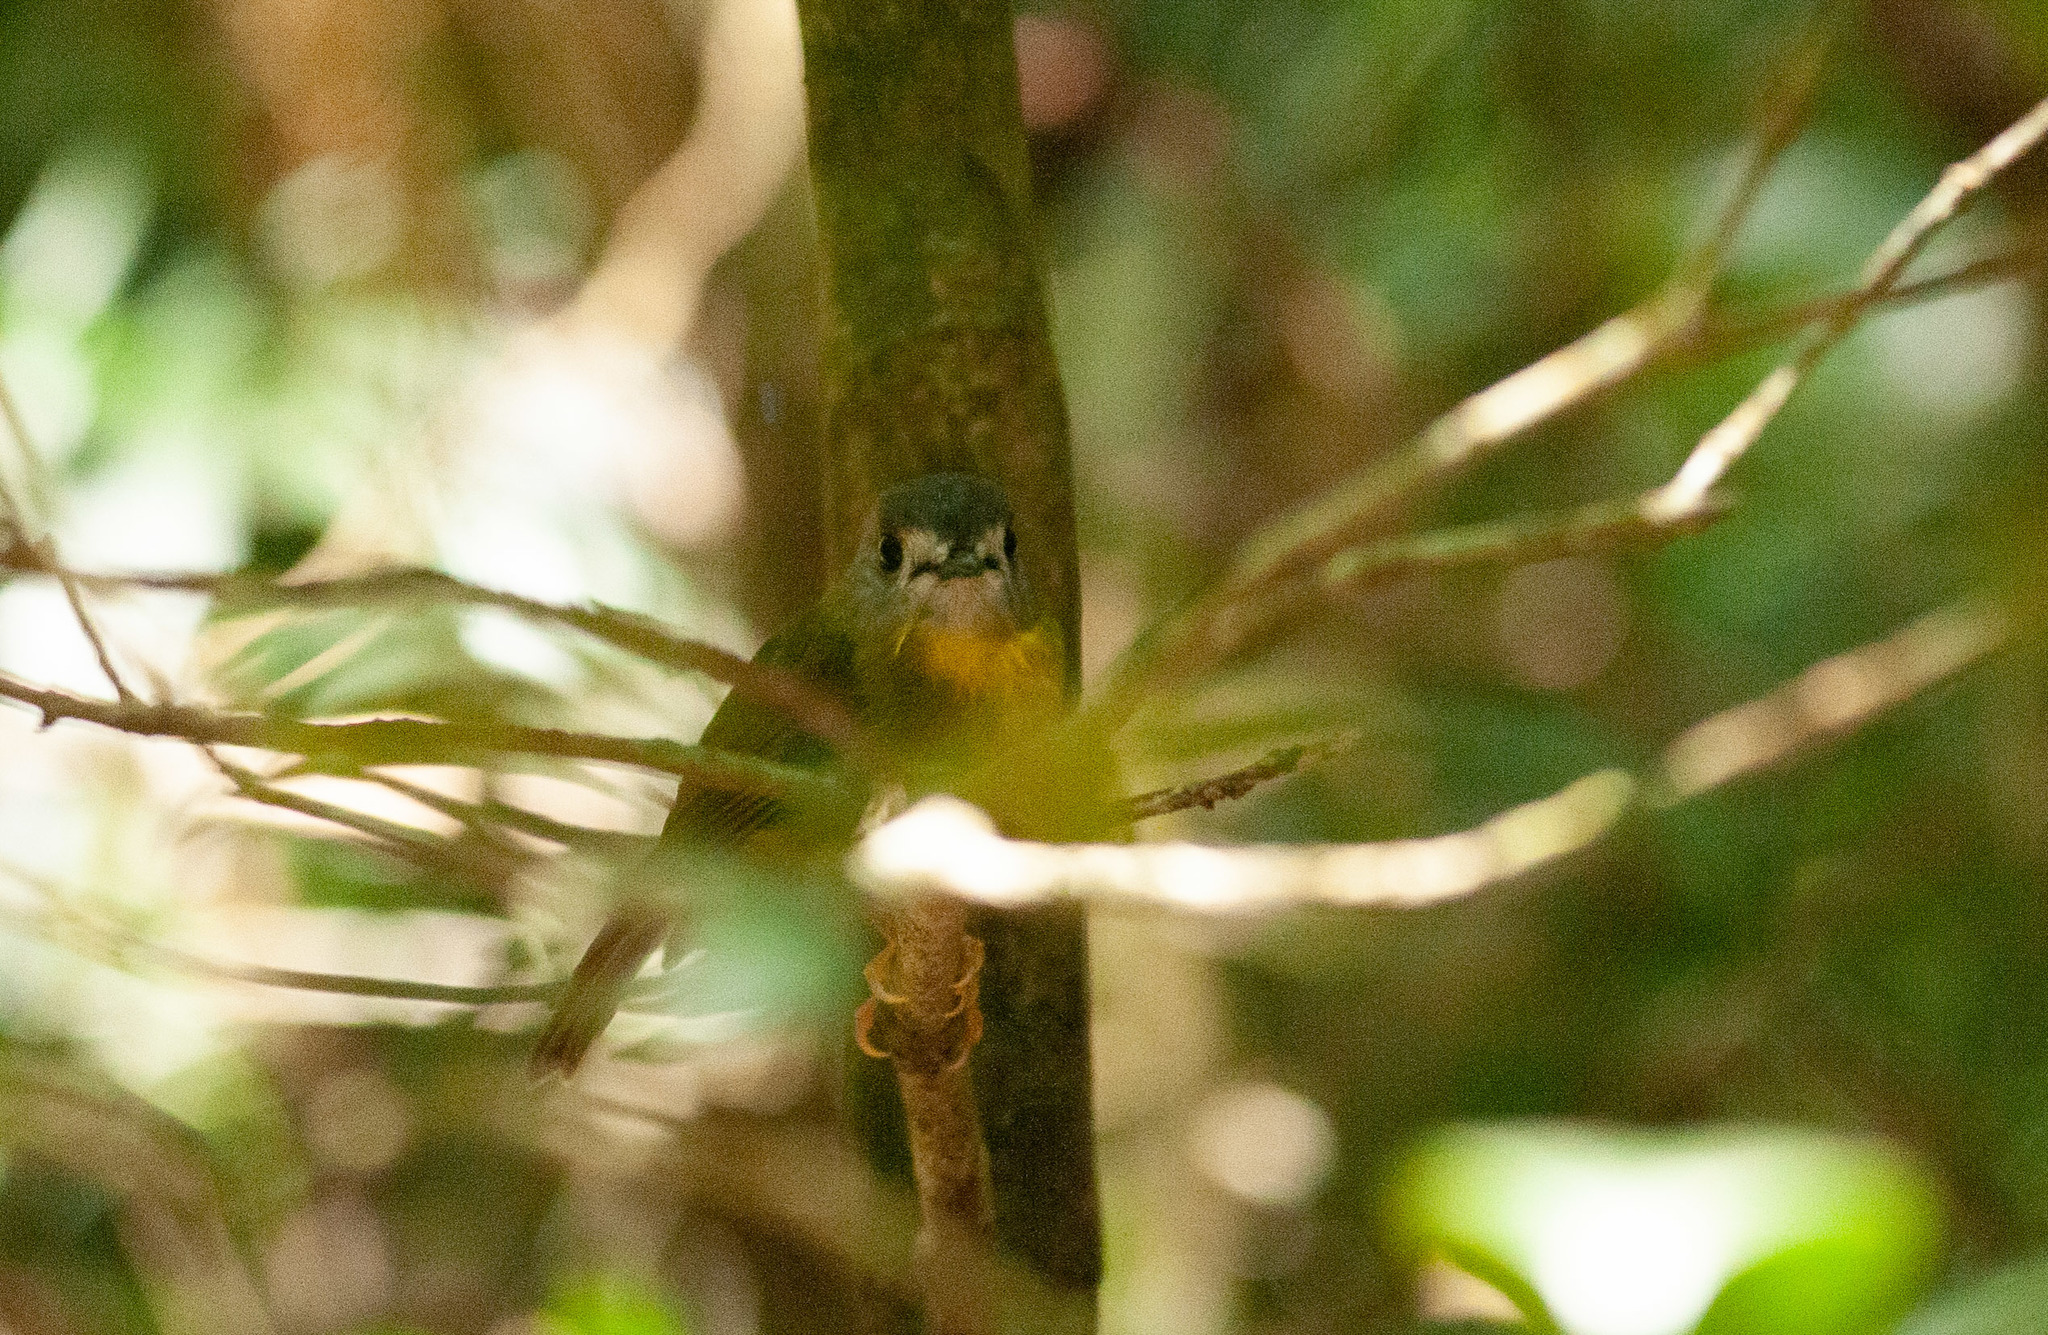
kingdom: Animalia
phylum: Chordata
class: Aves
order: Passeriformes
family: Petroicidae
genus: Eopsaltria
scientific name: Eopsaltria
